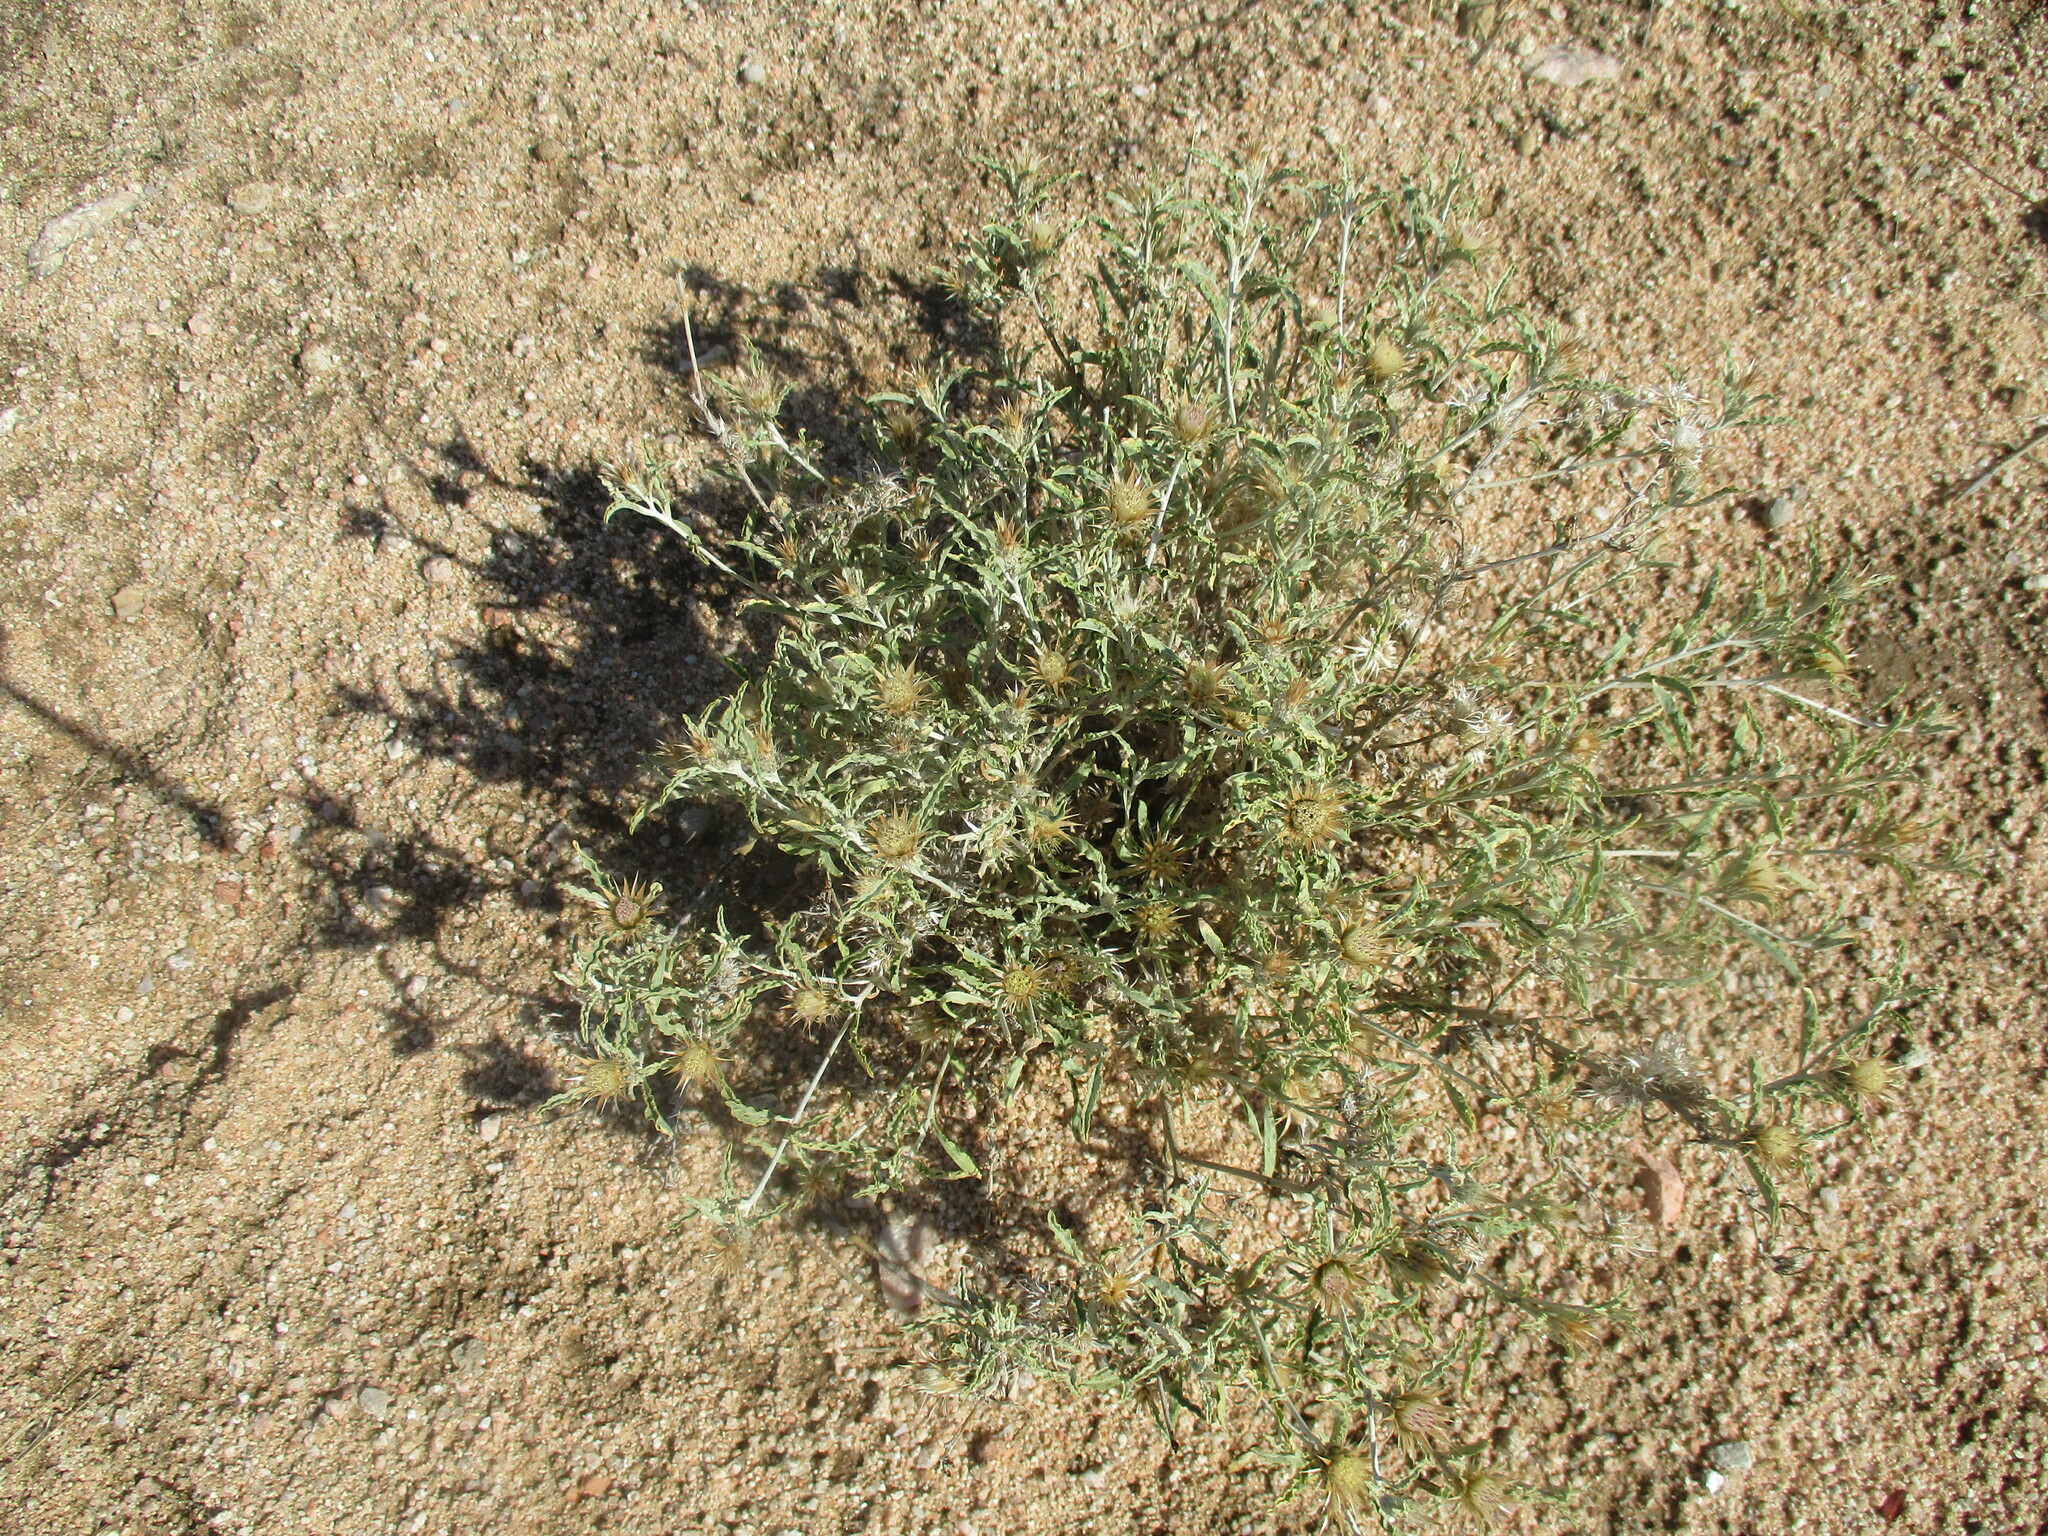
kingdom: Plantae
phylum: Tracheophyta
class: Magnoliopsida
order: Asterales
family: Asteraceae
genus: Dicoma
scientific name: Dicoma capensis
